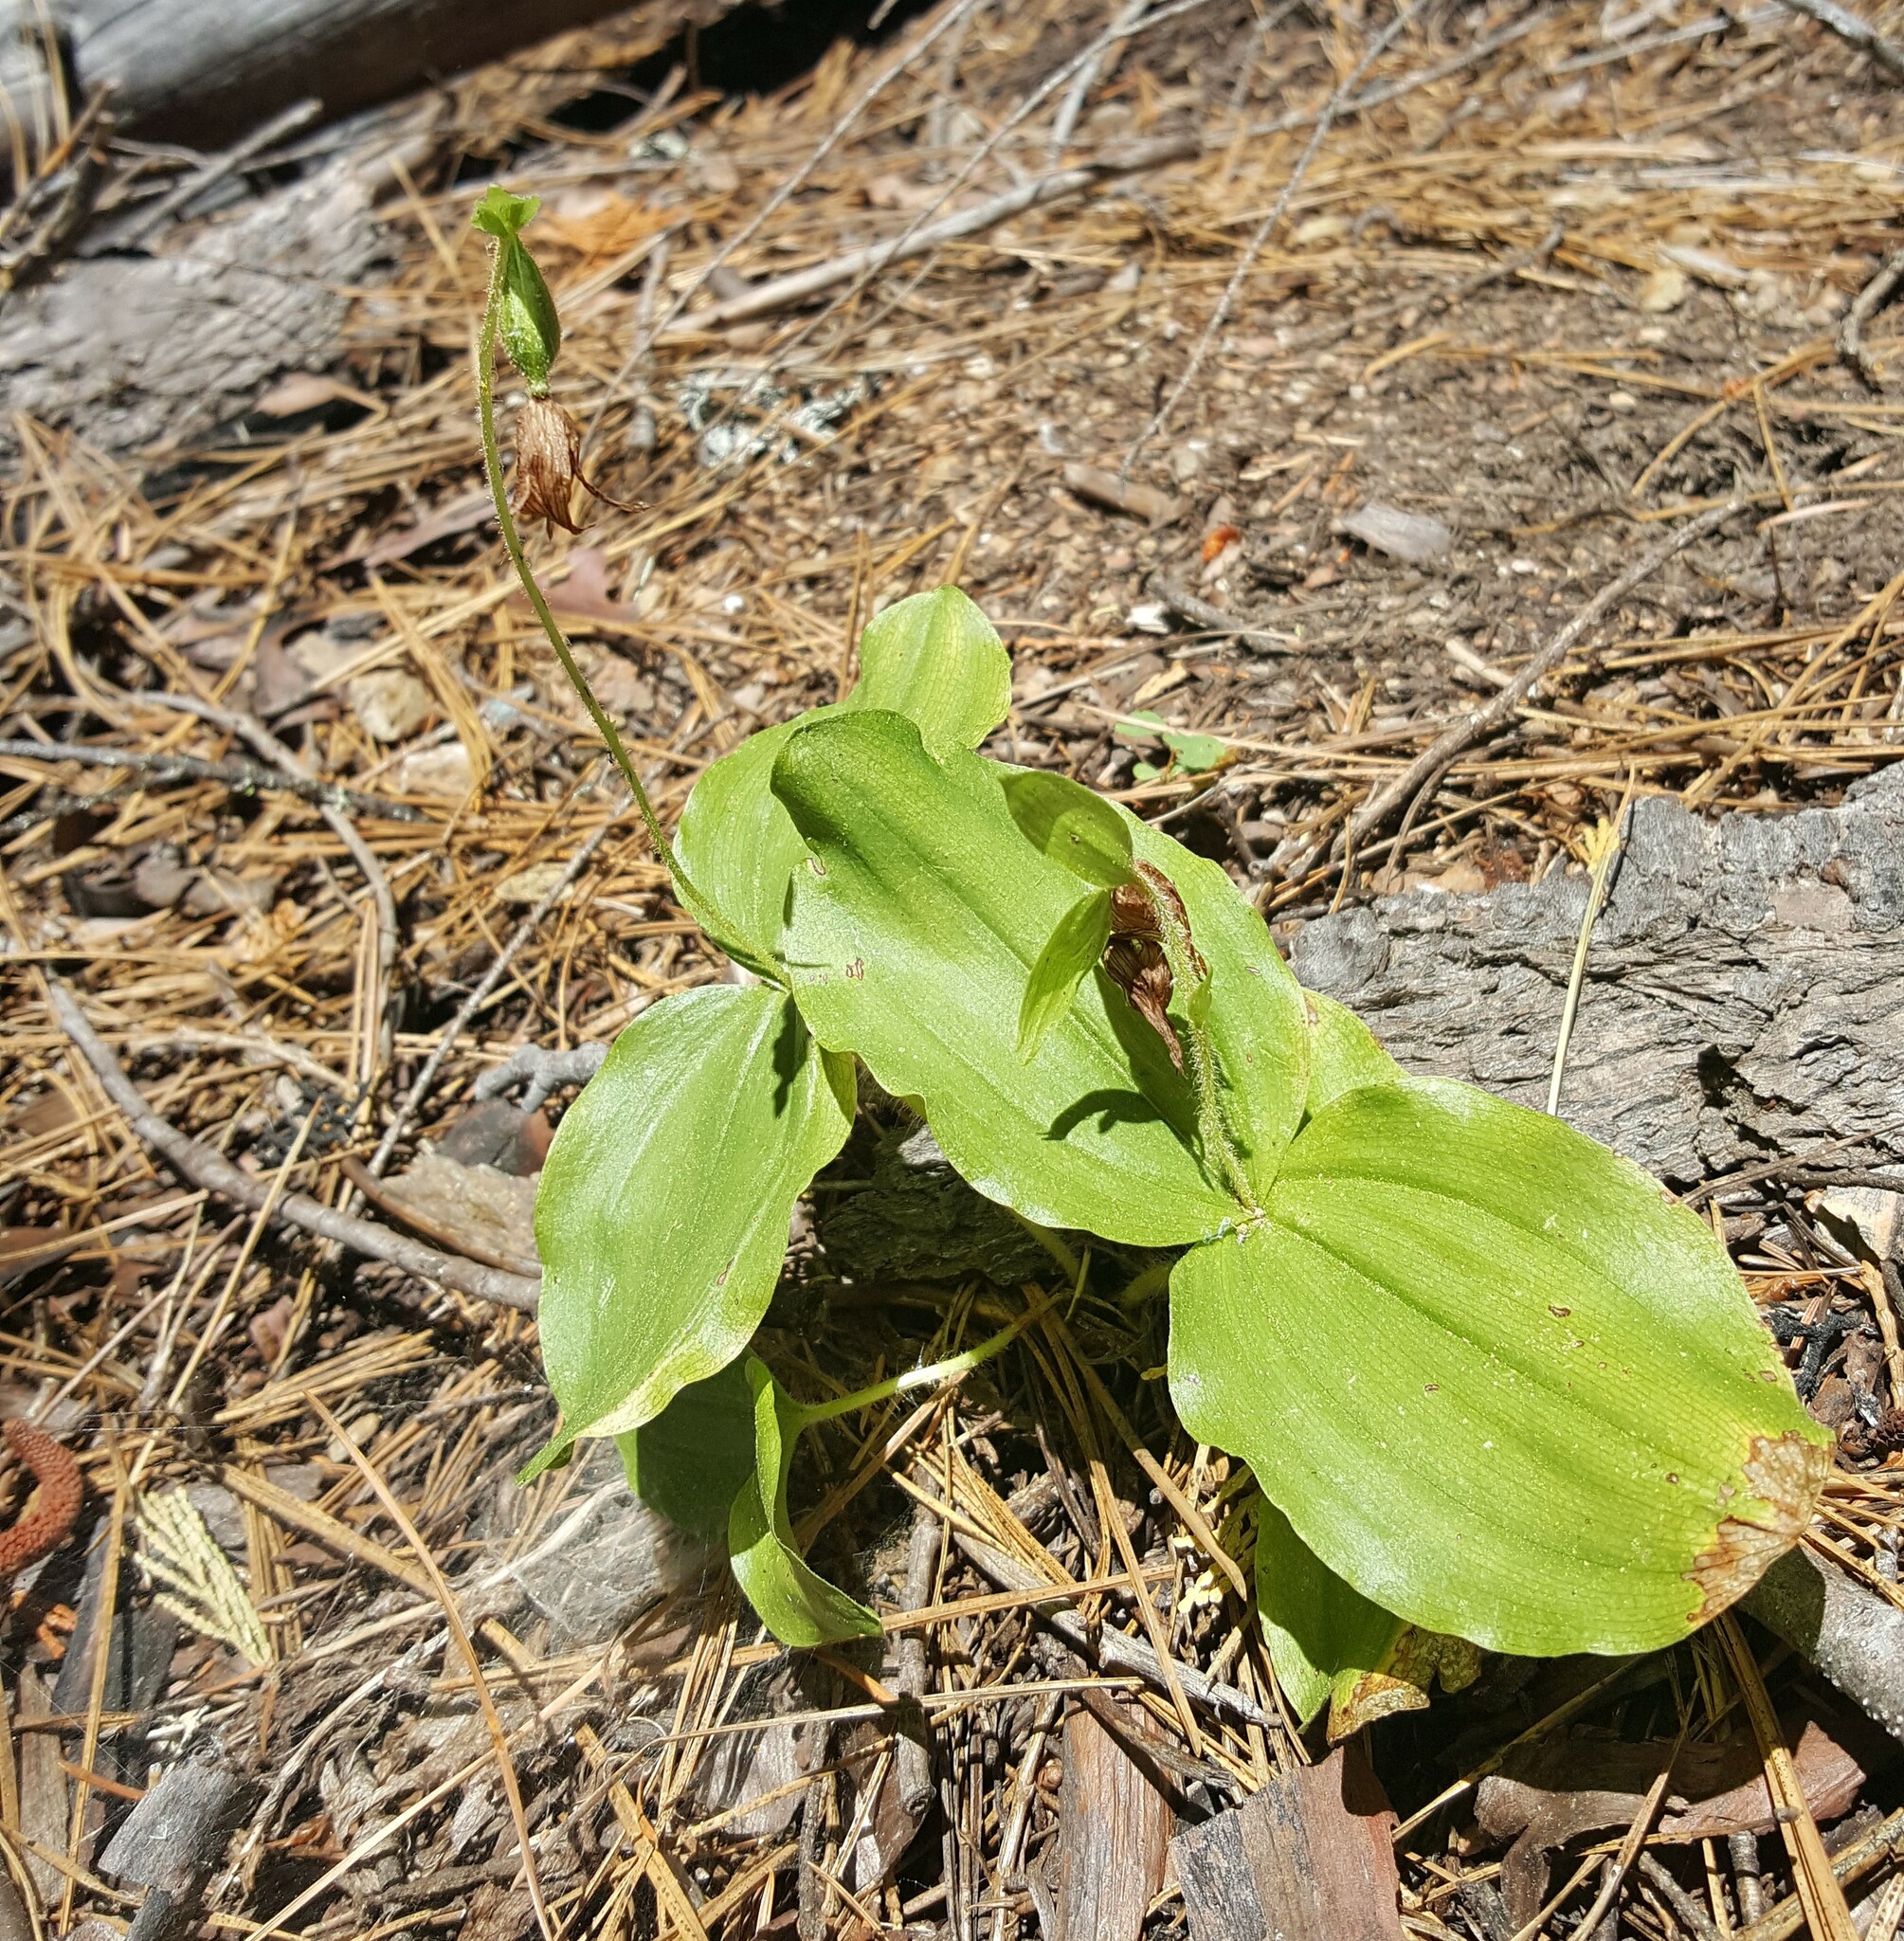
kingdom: Plantae
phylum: Tracheophyta
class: Liliopsida
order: Asparagales
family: Orchidaceae
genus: Cypripedium
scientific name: Cypripedium fasciculatum
